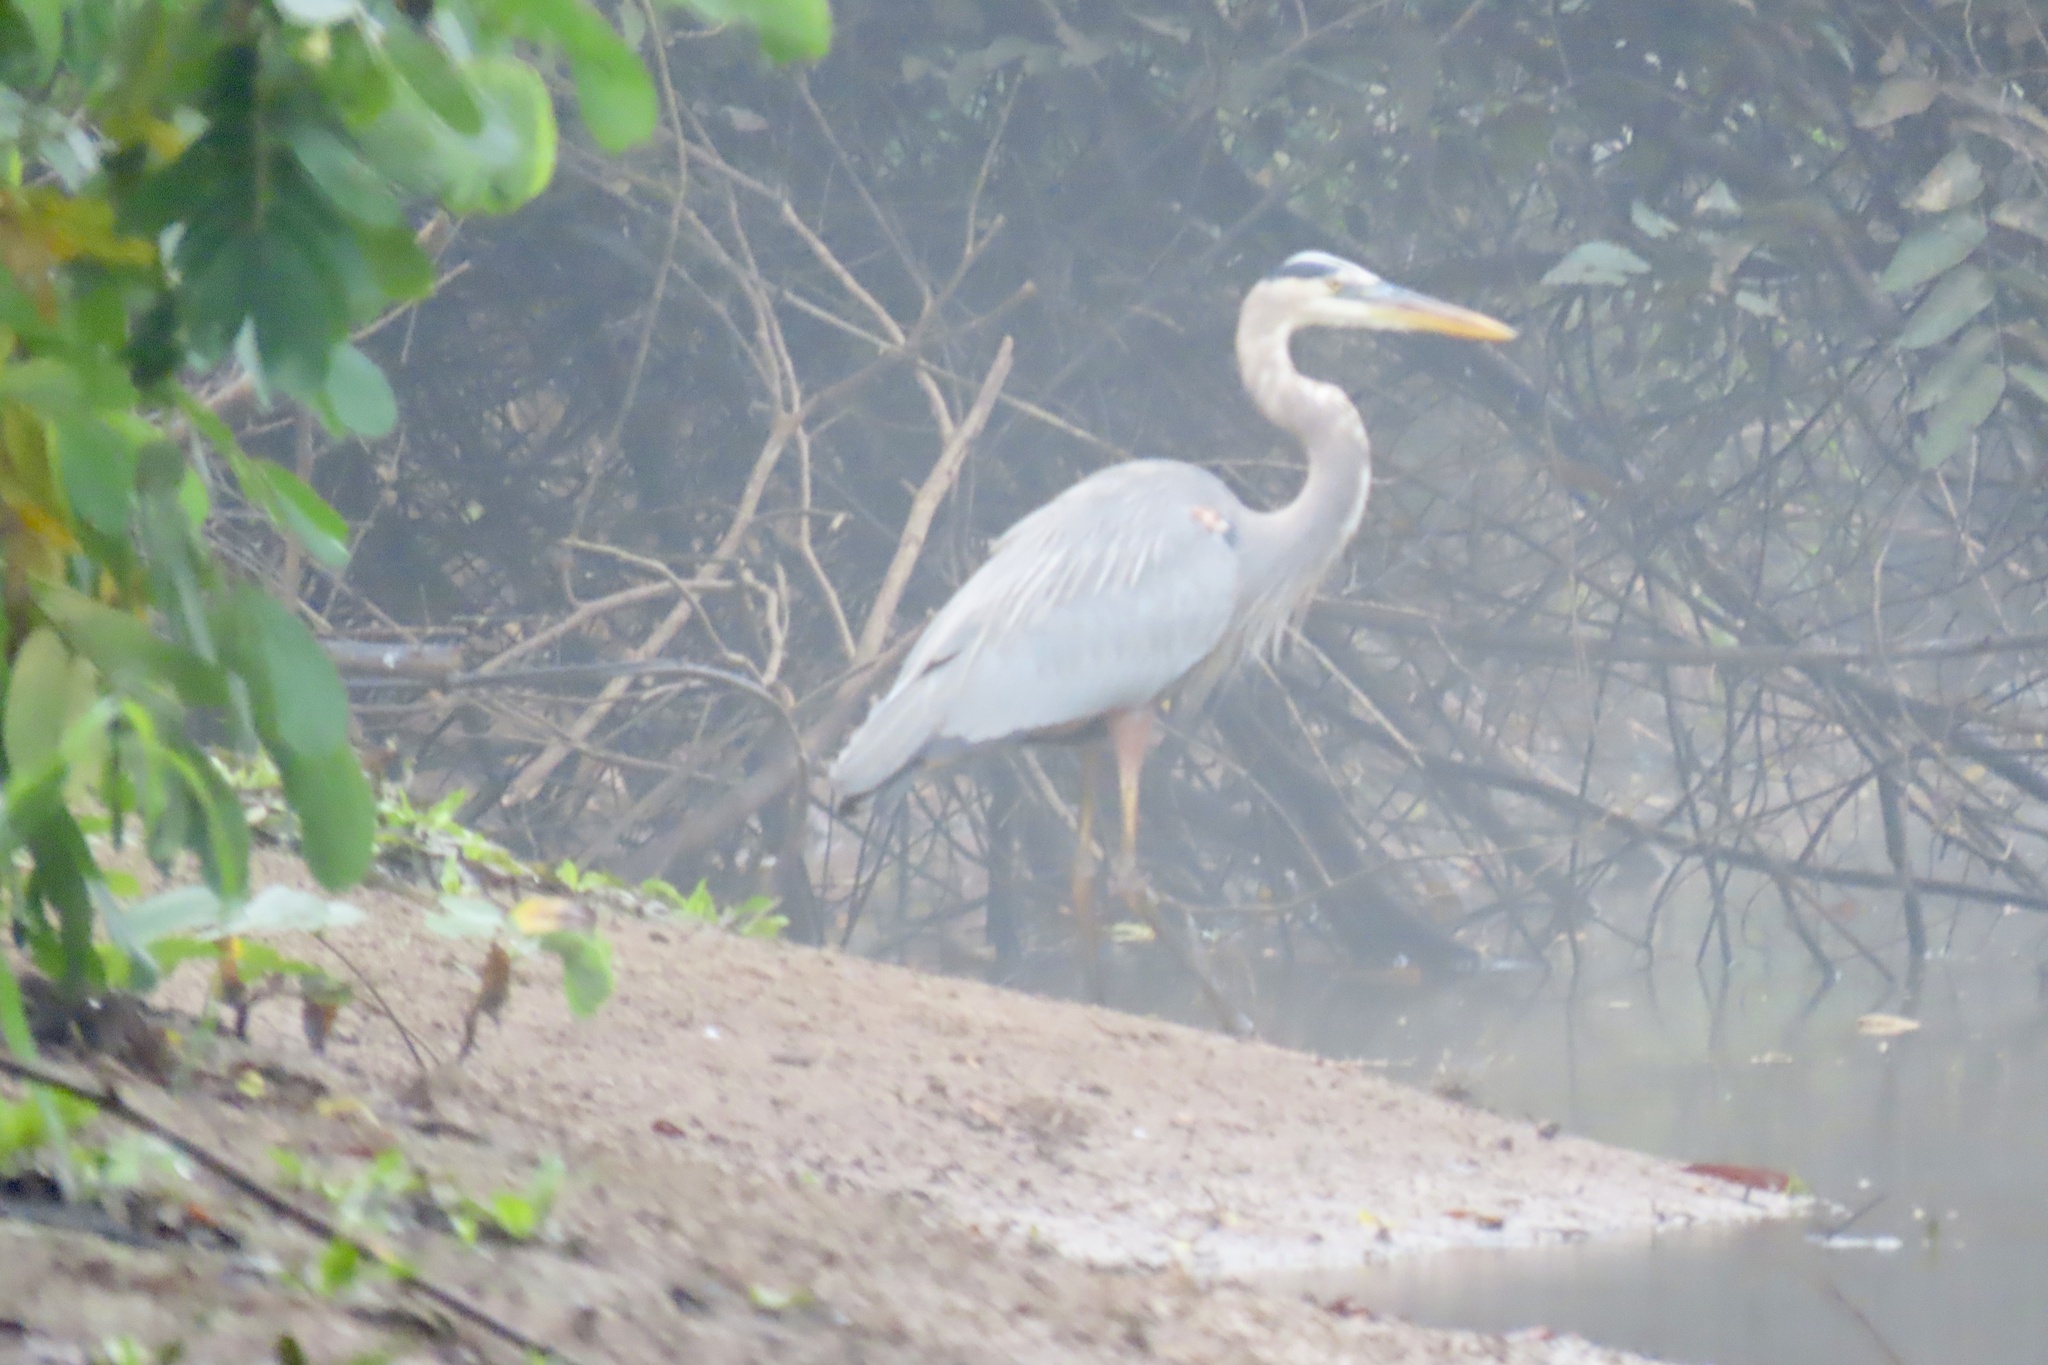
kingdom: Animalia
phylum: Chordata
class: Aves
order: Pelecaniformes
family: Ardeidae
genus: Ardea
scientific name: Ardea herodias
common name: Great blue heron
